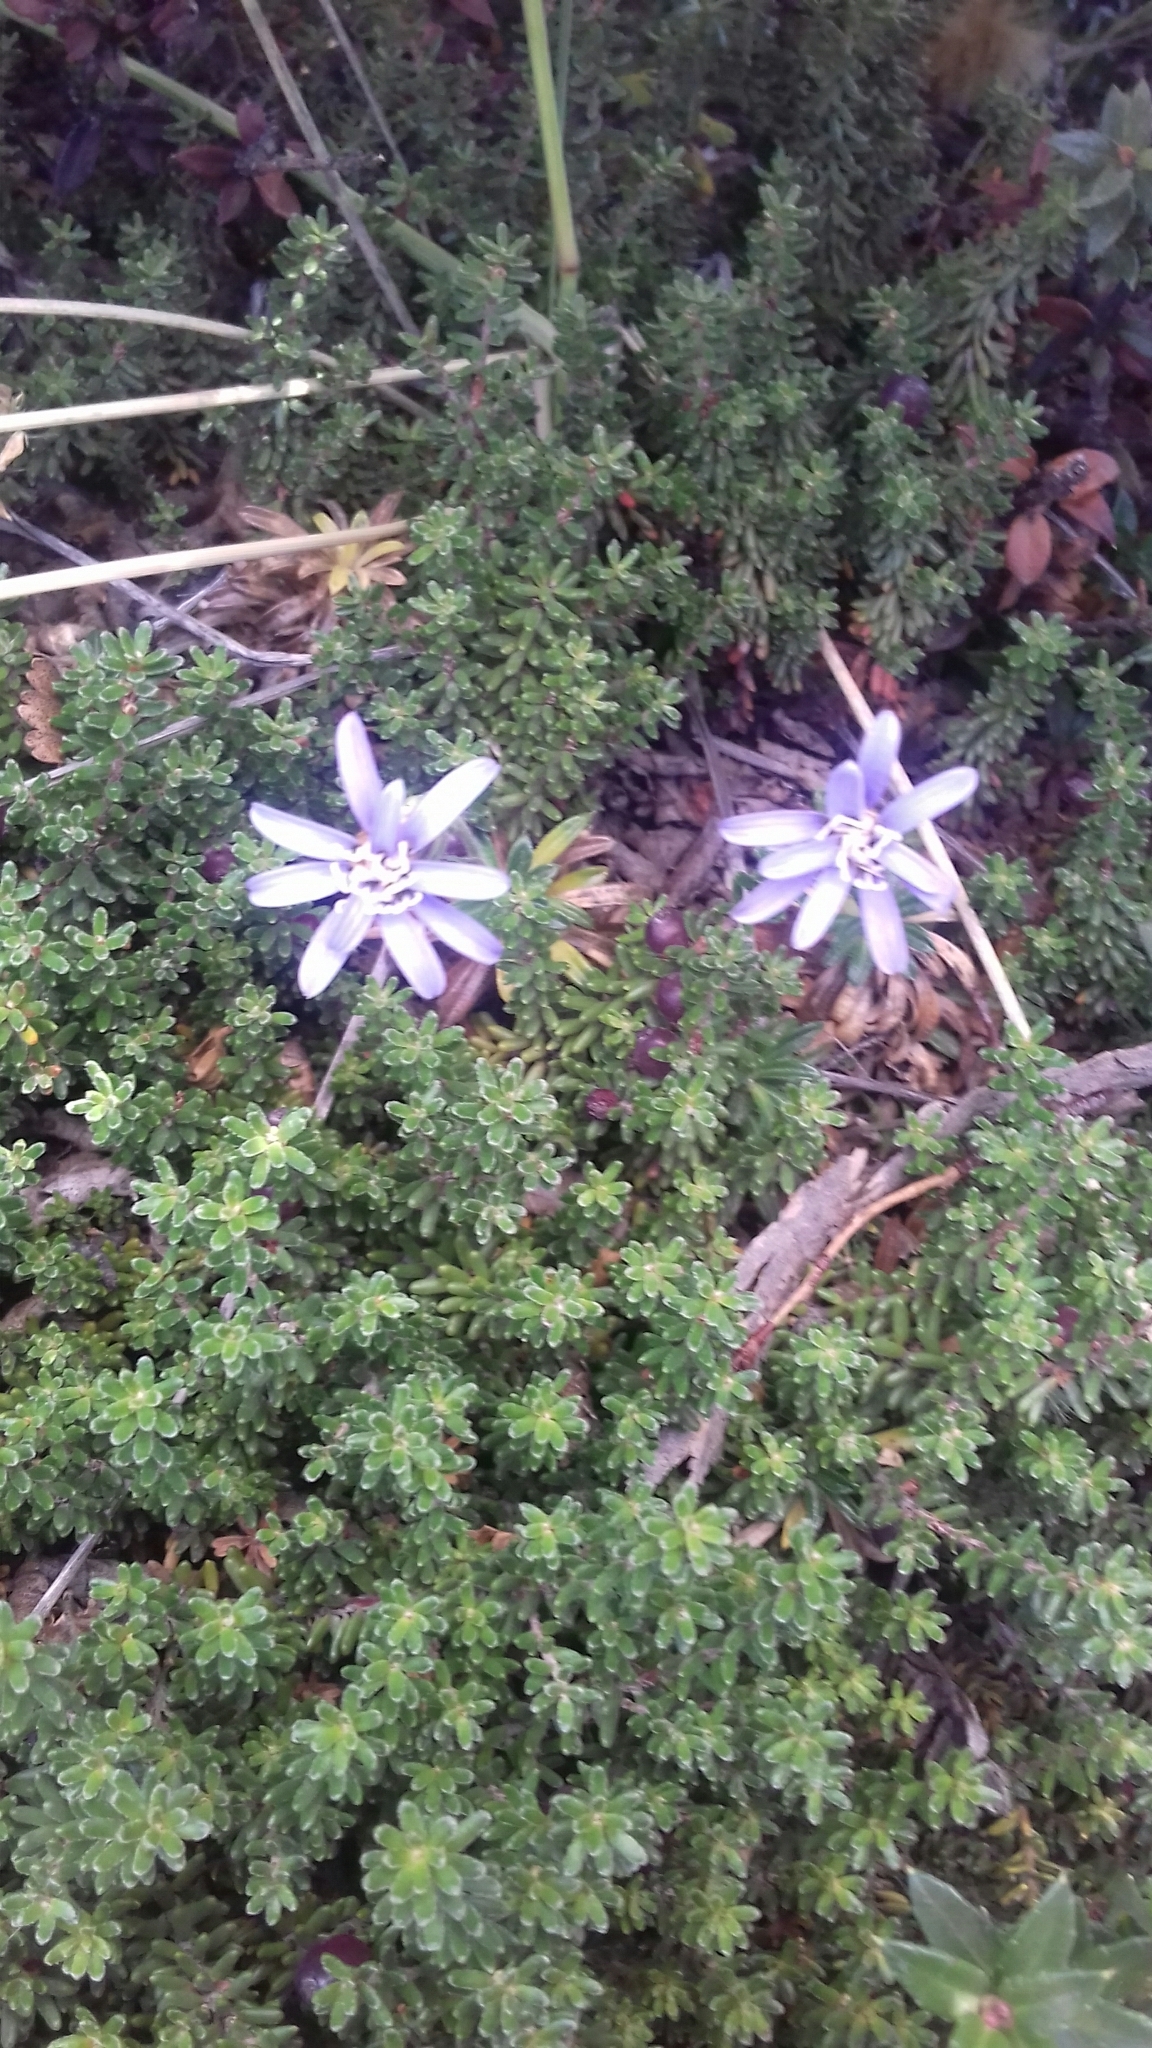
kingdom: Plantae
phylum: Tracheophyta
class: Magnoliopsida
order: Asterales
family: Asteraceae
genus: Perezia
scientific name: Perezia recurvata
